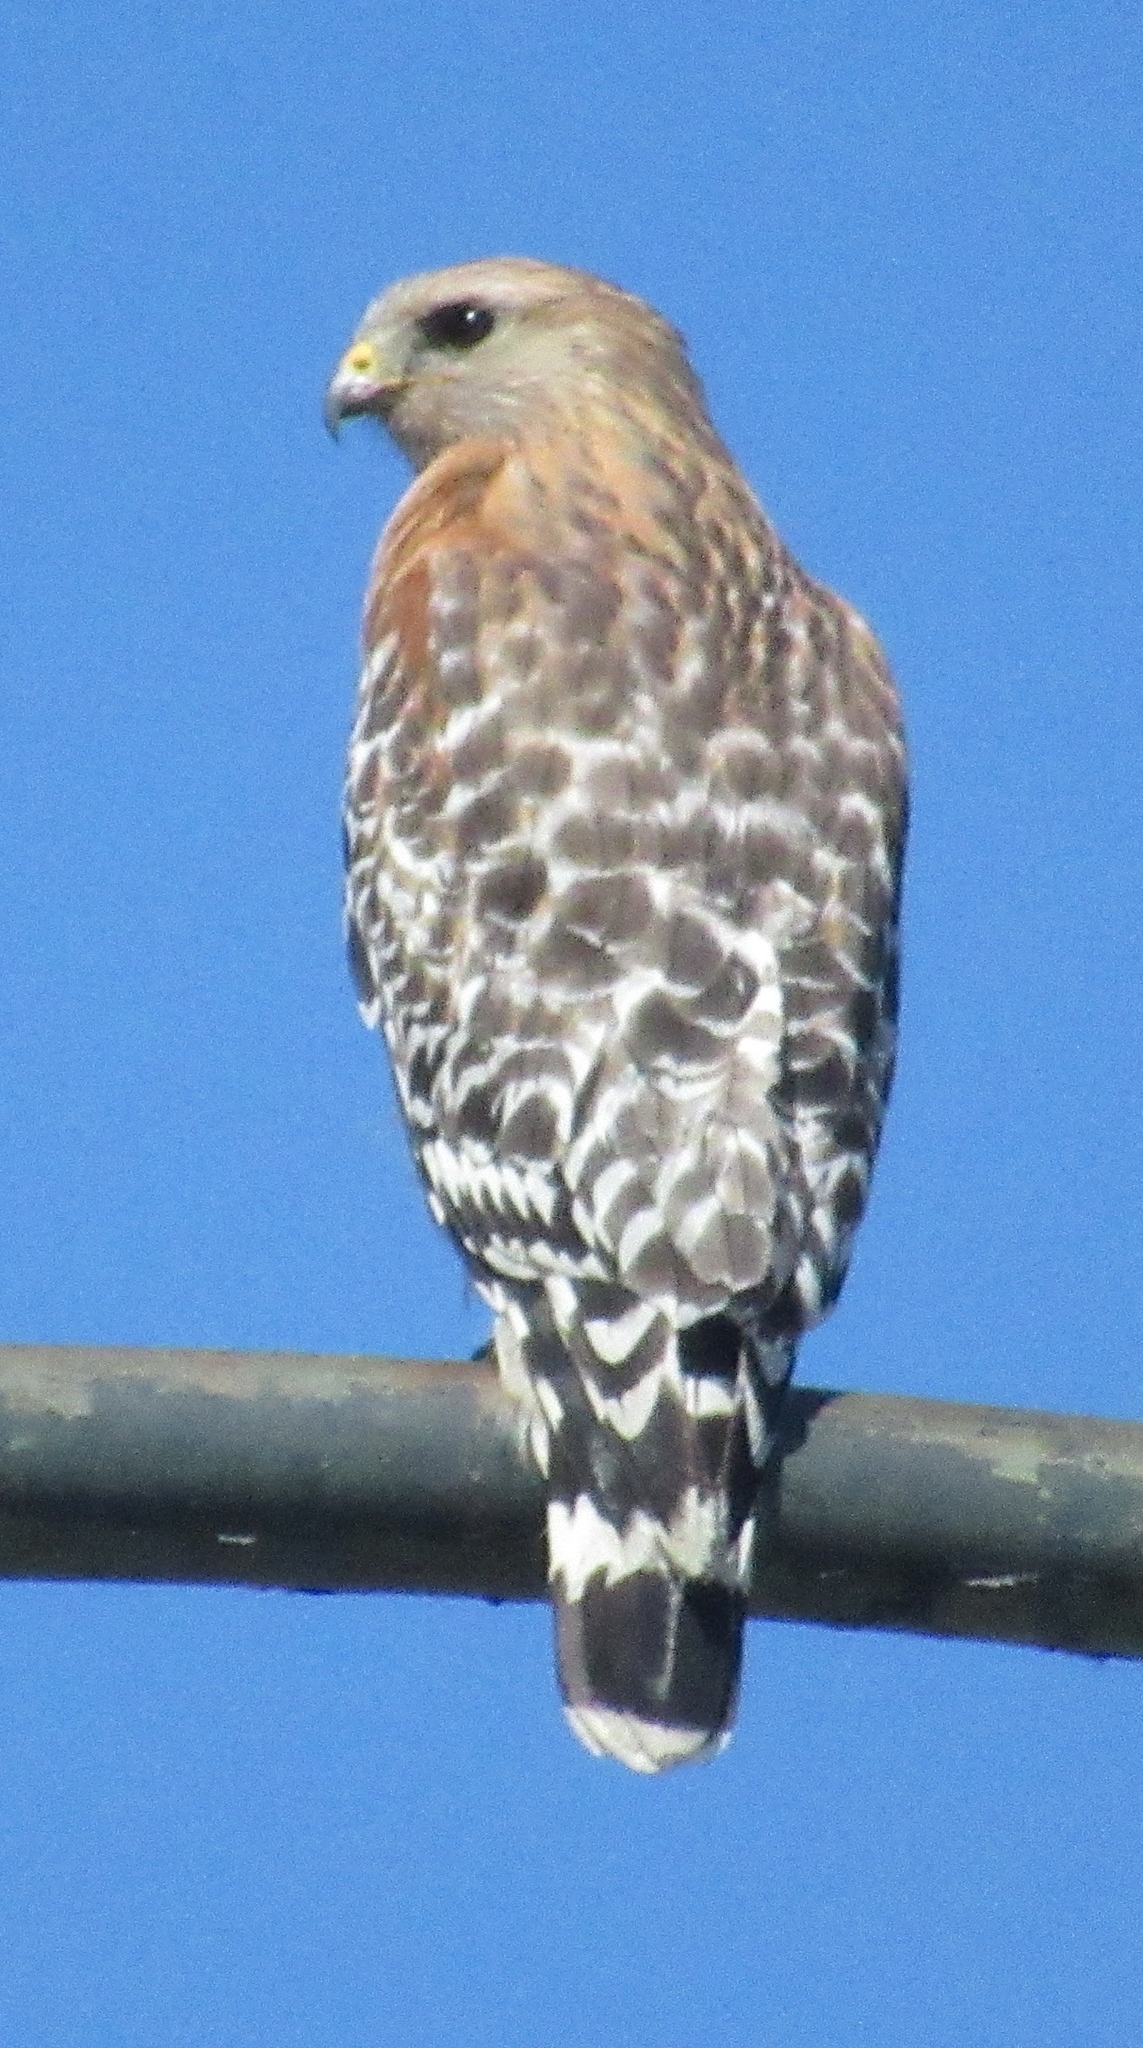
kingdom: Animalia
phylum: Chordata
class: Aves
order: Accipitriformes
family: Accipitridae
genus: Buteo
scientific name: Buteo lineatus
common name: Red-shouldered hawk
